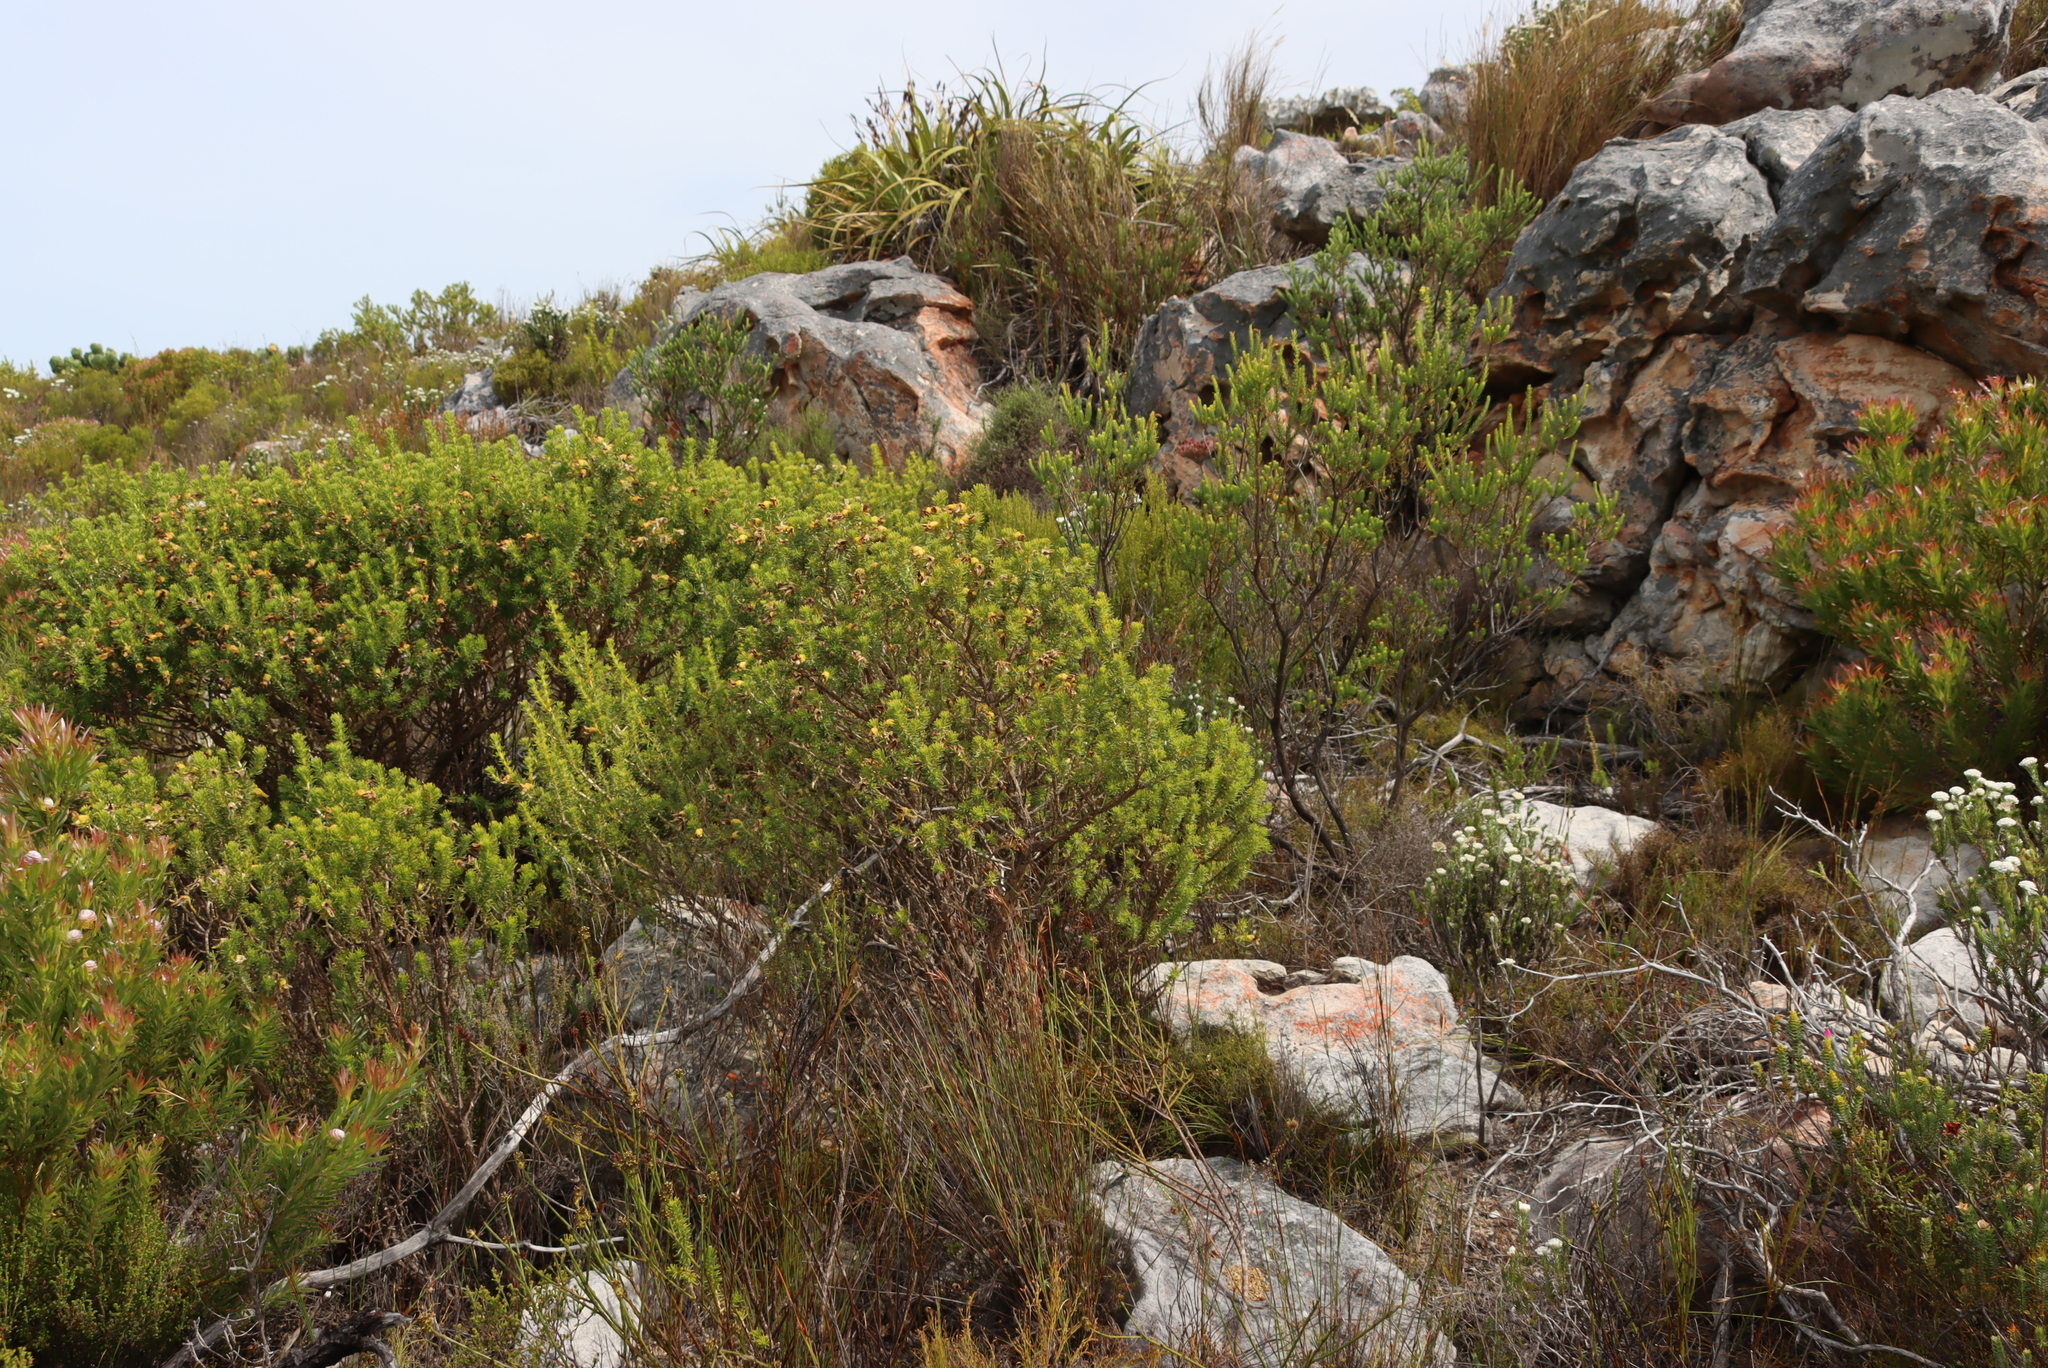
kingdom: Plantae
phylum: Tracheophyta
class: Magnoliopsida
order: Fabales
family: Fabaceae
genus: Aspalathus
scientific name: Aspalathus capensis
